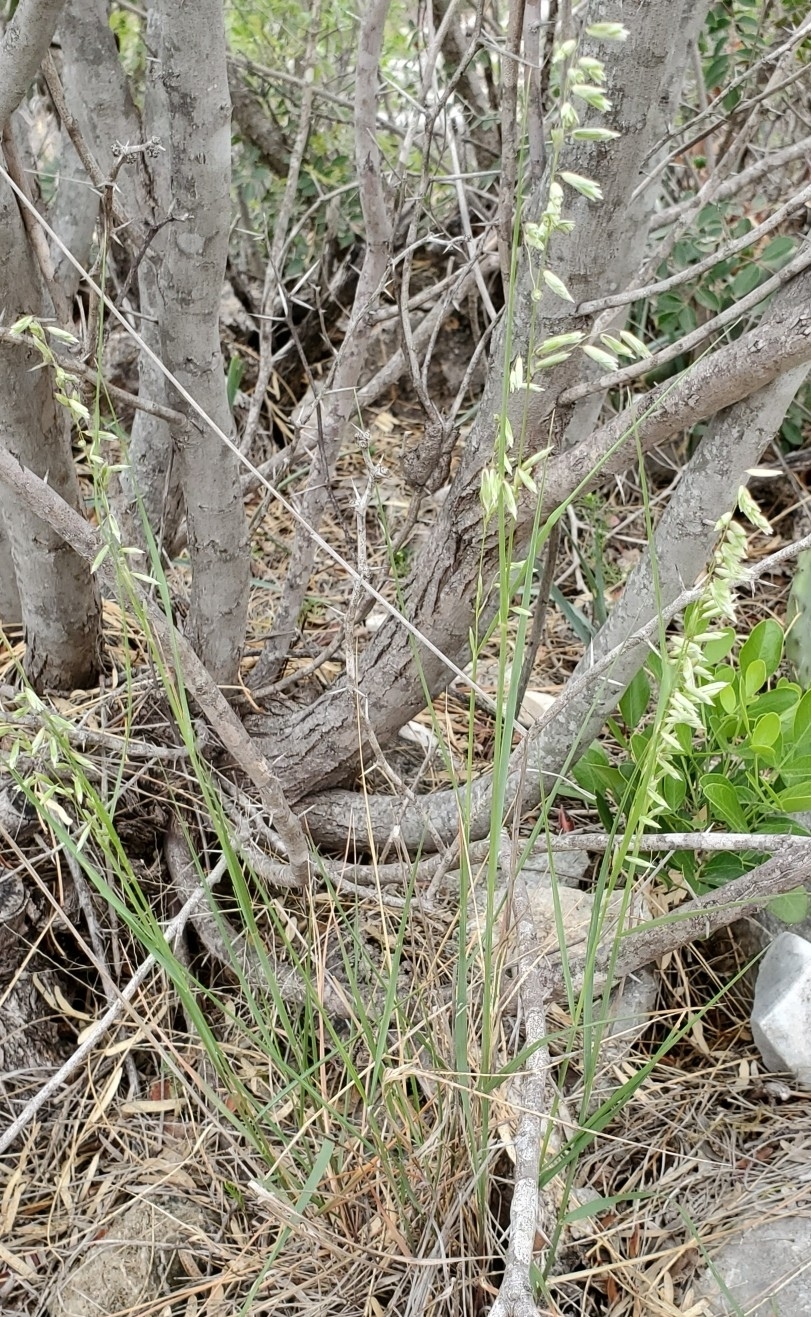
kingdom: Plantae
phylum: Tracheophyta
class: Liliopsida
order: Poales
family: Poaceae
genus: Melica
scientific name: Melica nitens
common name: Three-flower melic
